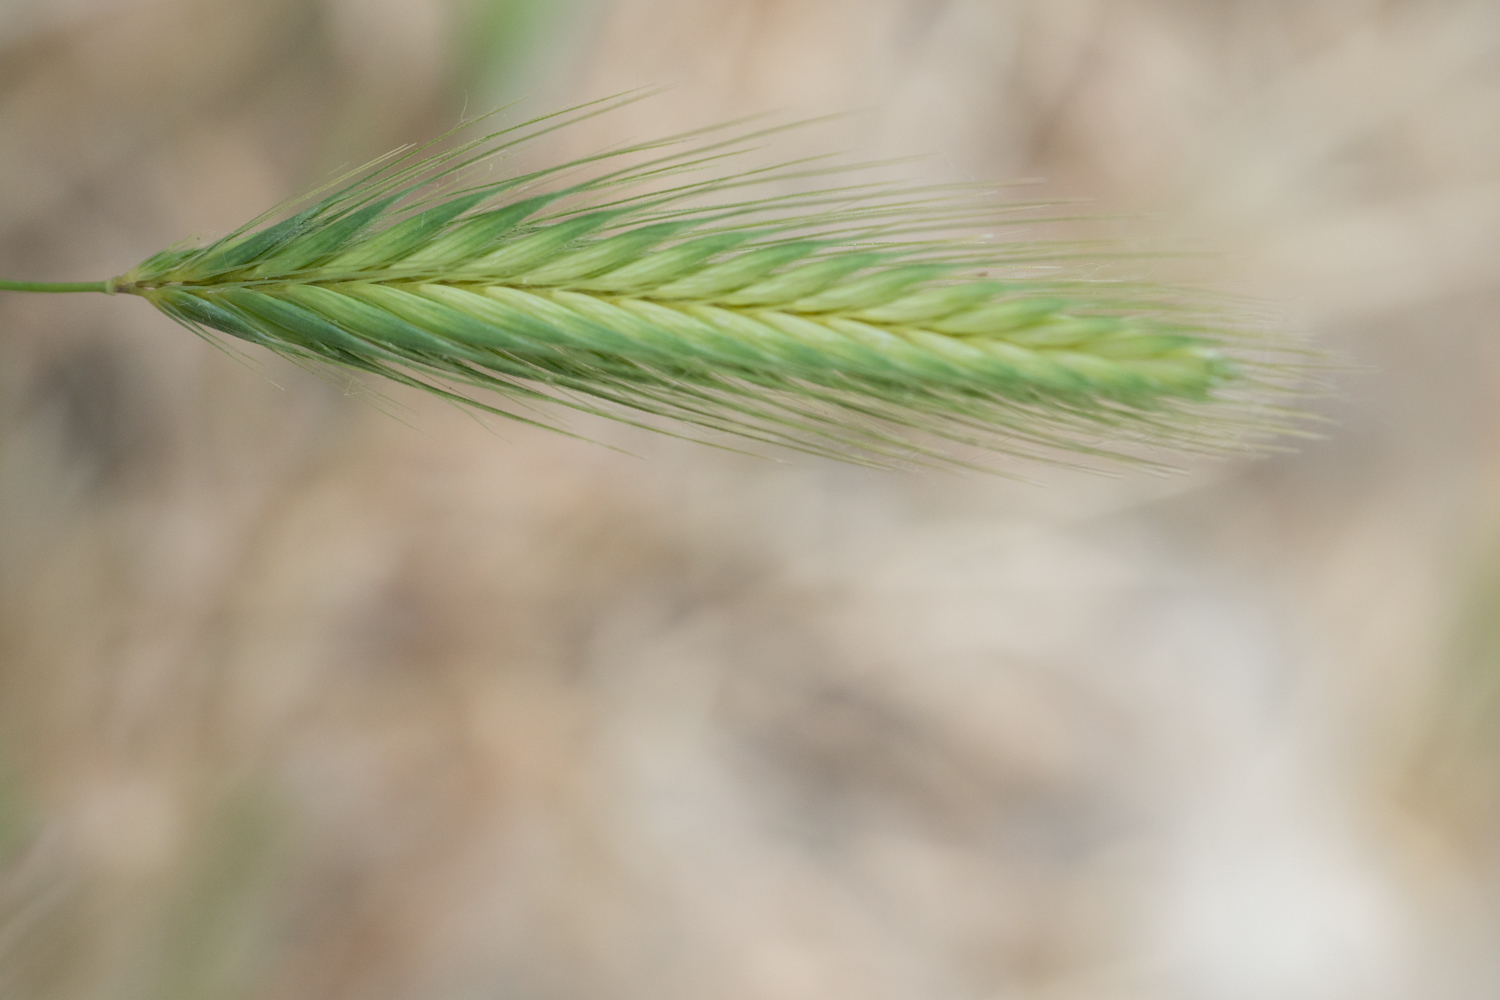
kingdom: Plantae
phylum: Tracheophyta
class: Liliopsida
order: Poales
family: Poaceae
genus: Hordeum
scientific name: Hordeum murinum
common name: Wall barley
